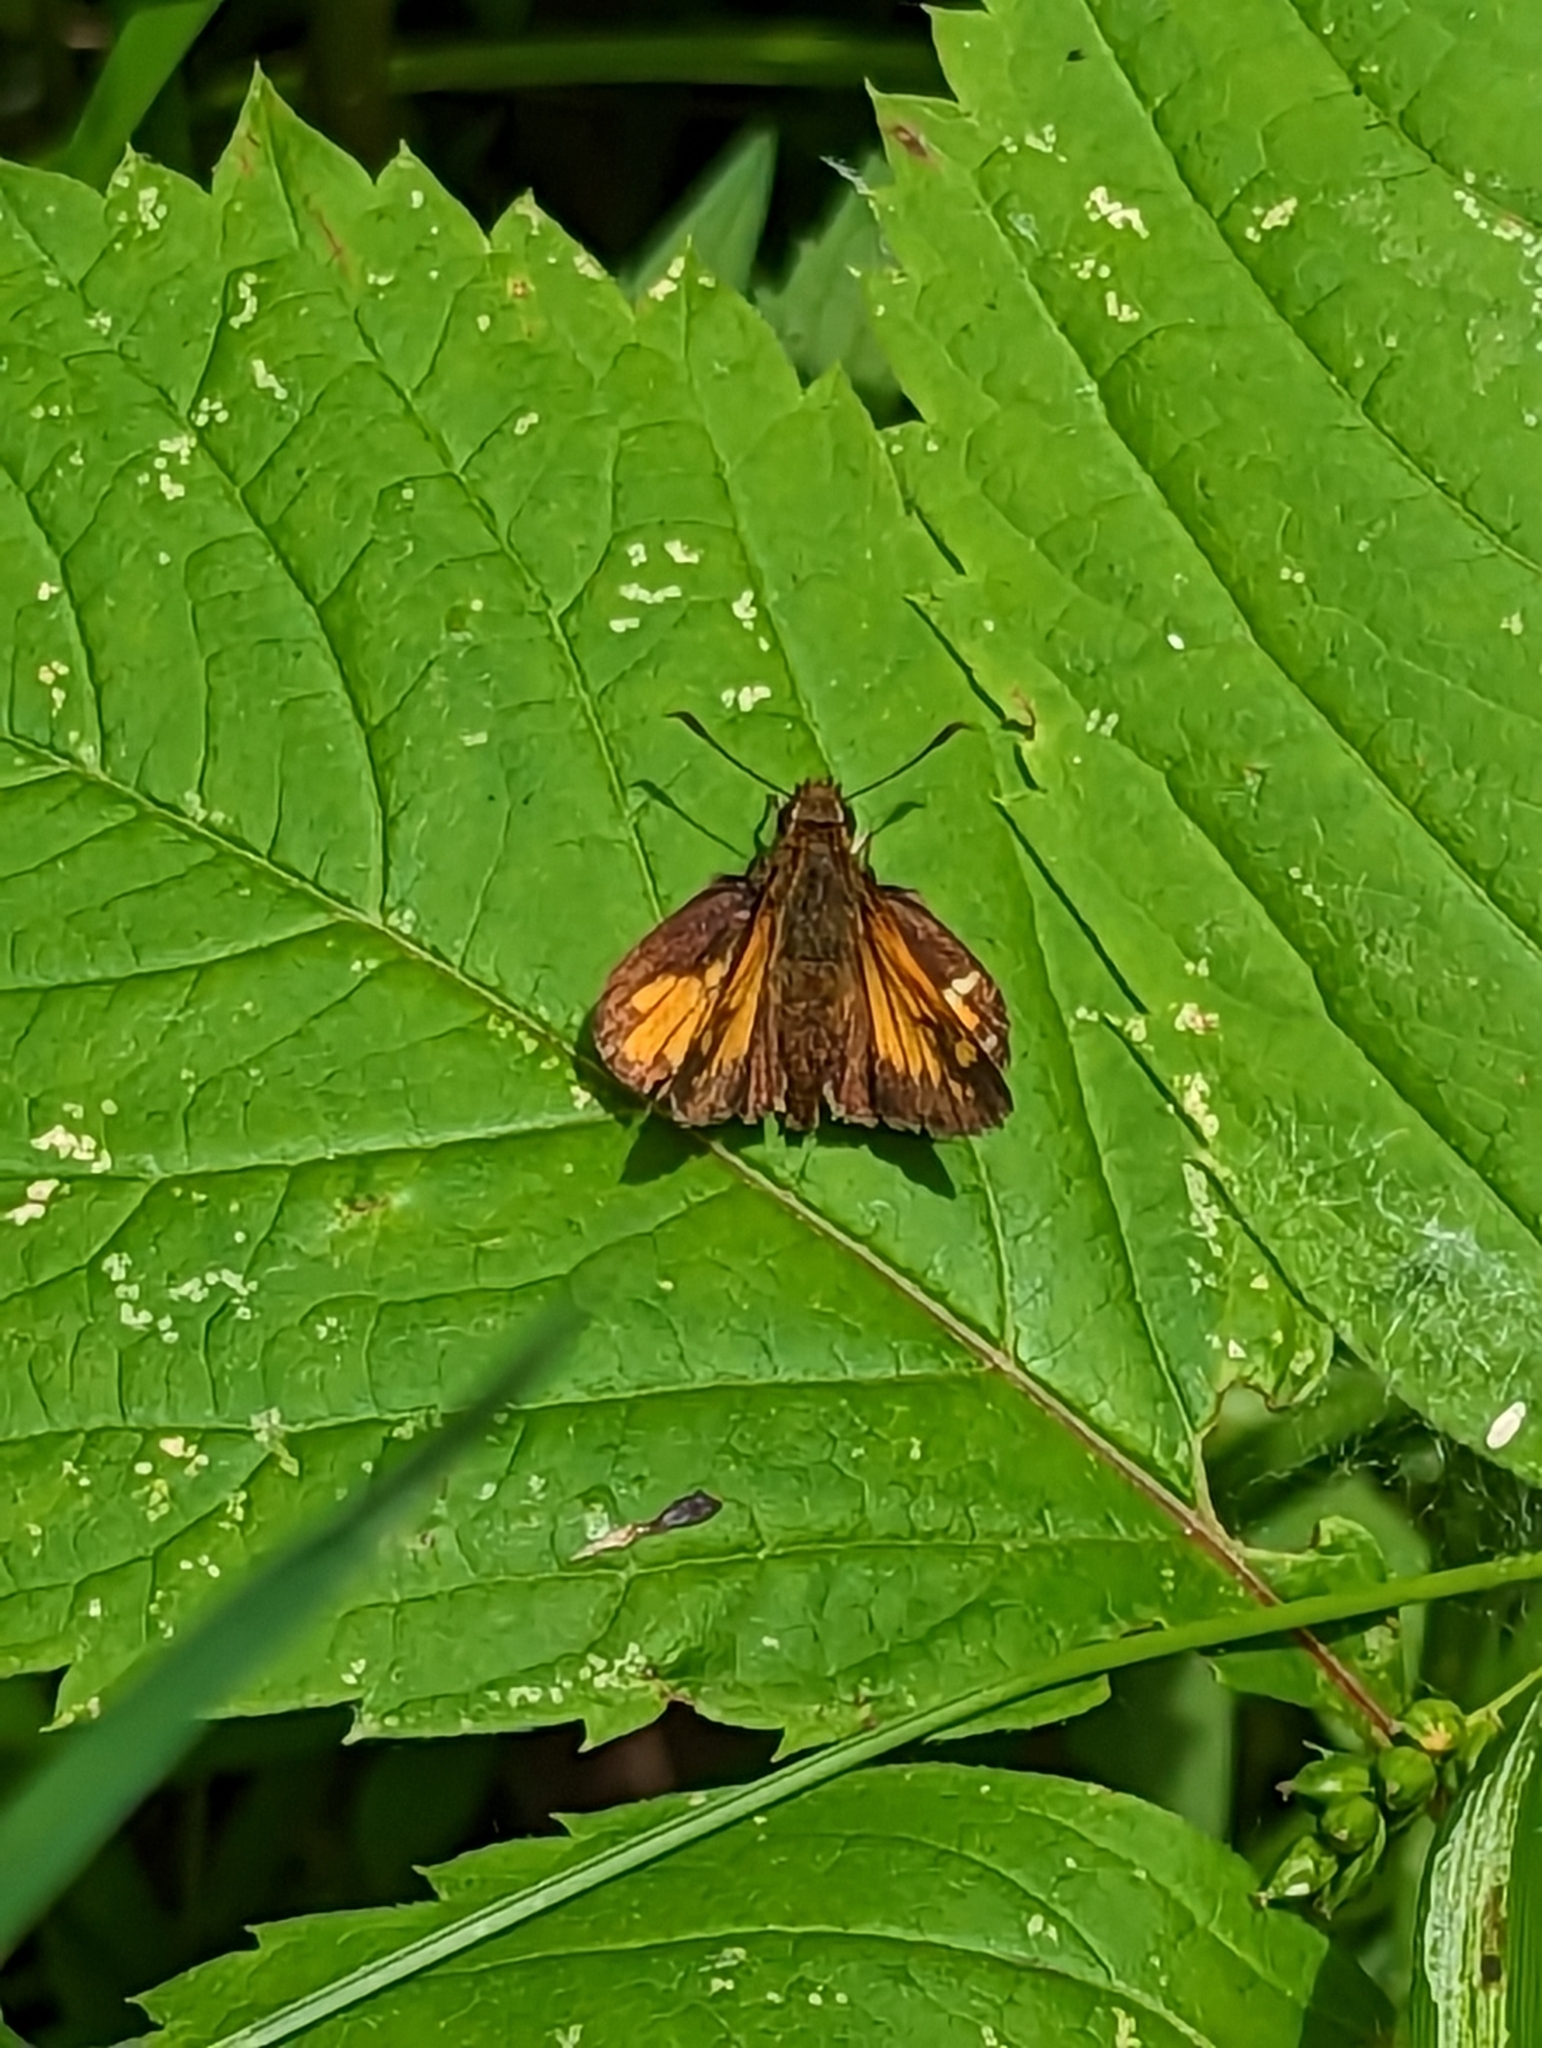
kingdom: Animalia
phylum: Arthropoda
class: Insecta
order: Lepidoptera
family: Hesperiidae
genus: Lon
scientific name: Lon hobomok
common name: Hobomok skipper
